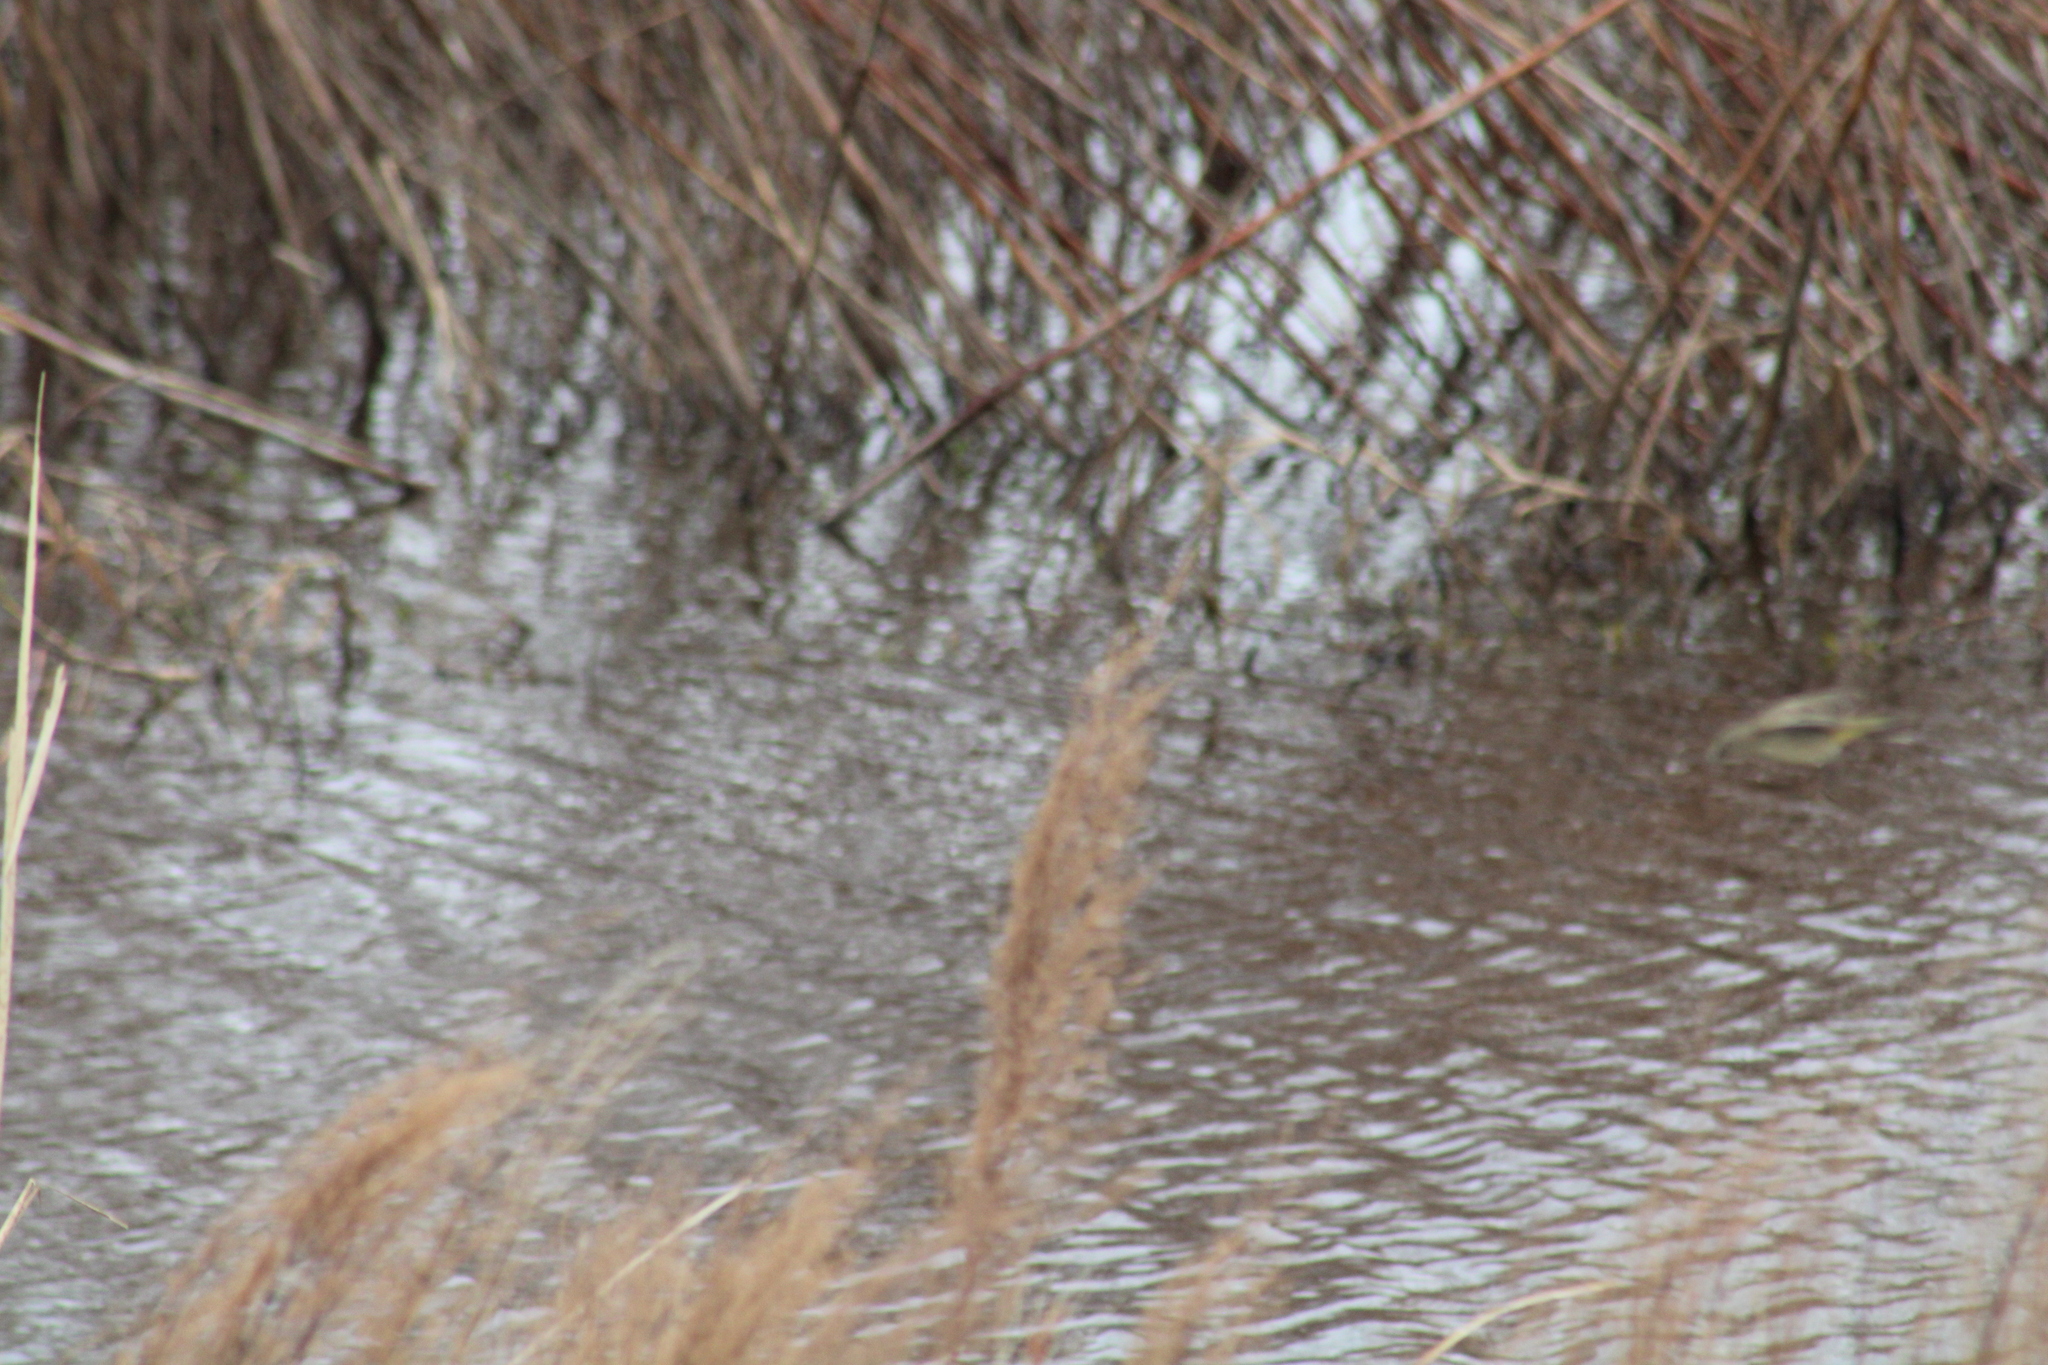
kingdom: Animalia
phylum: Chordata
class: Aves
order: Passeriformes
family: Parulidae
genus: Setophaga
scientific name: Setophaga palmarum
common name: Palm warbler
